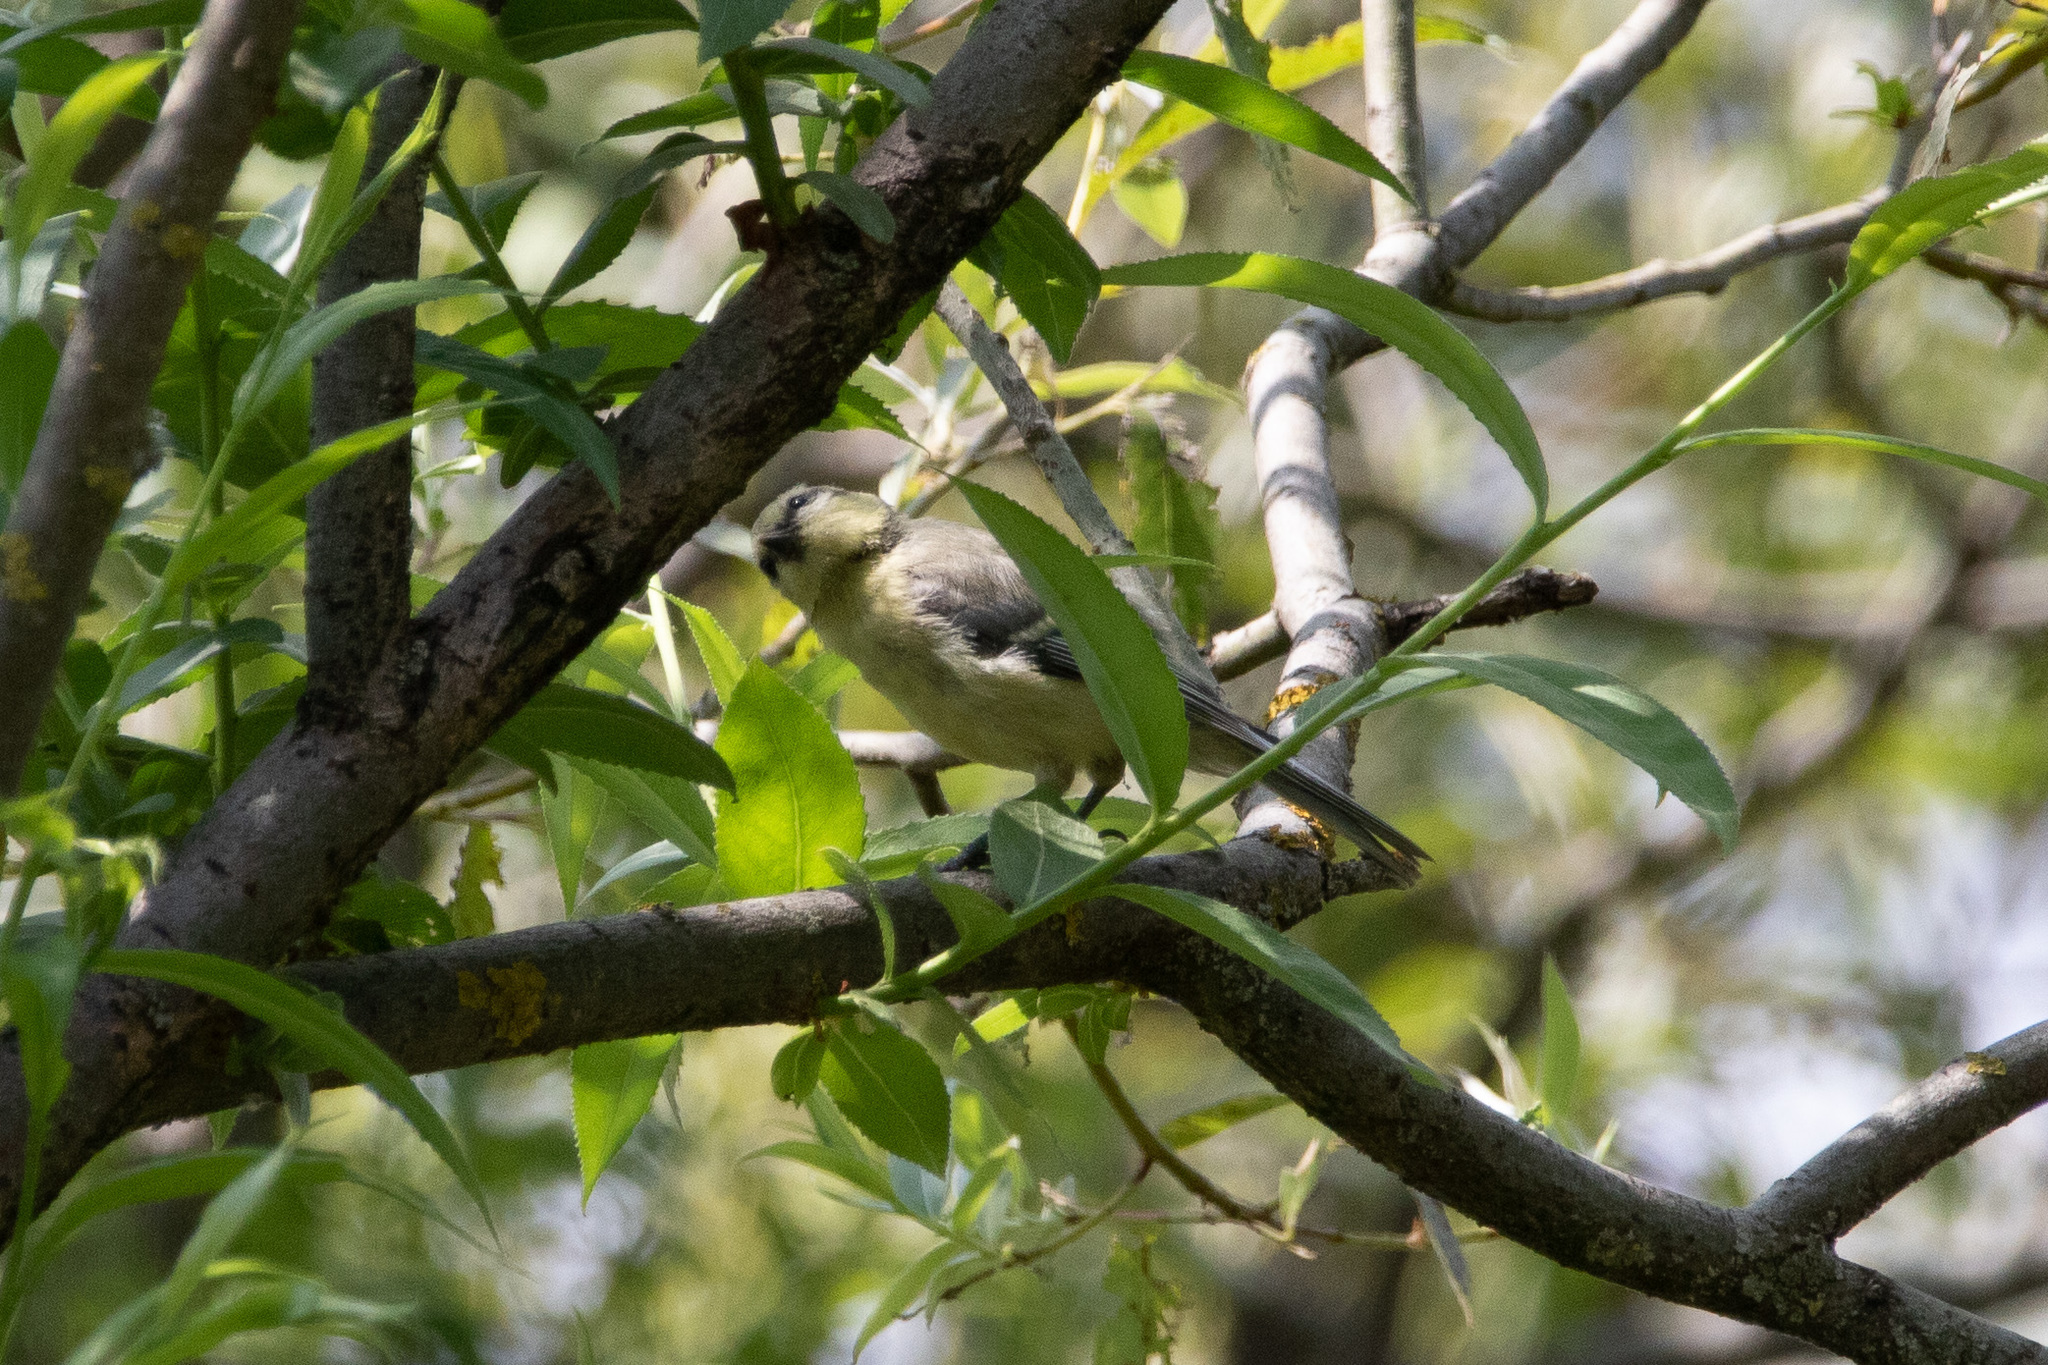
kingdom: Animalia
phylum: Chordata
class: Aves
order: Passeriformes
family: Paridae
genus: Cyanistes
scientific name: Cyanistes caeruleus
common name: Eurasian blue tit
